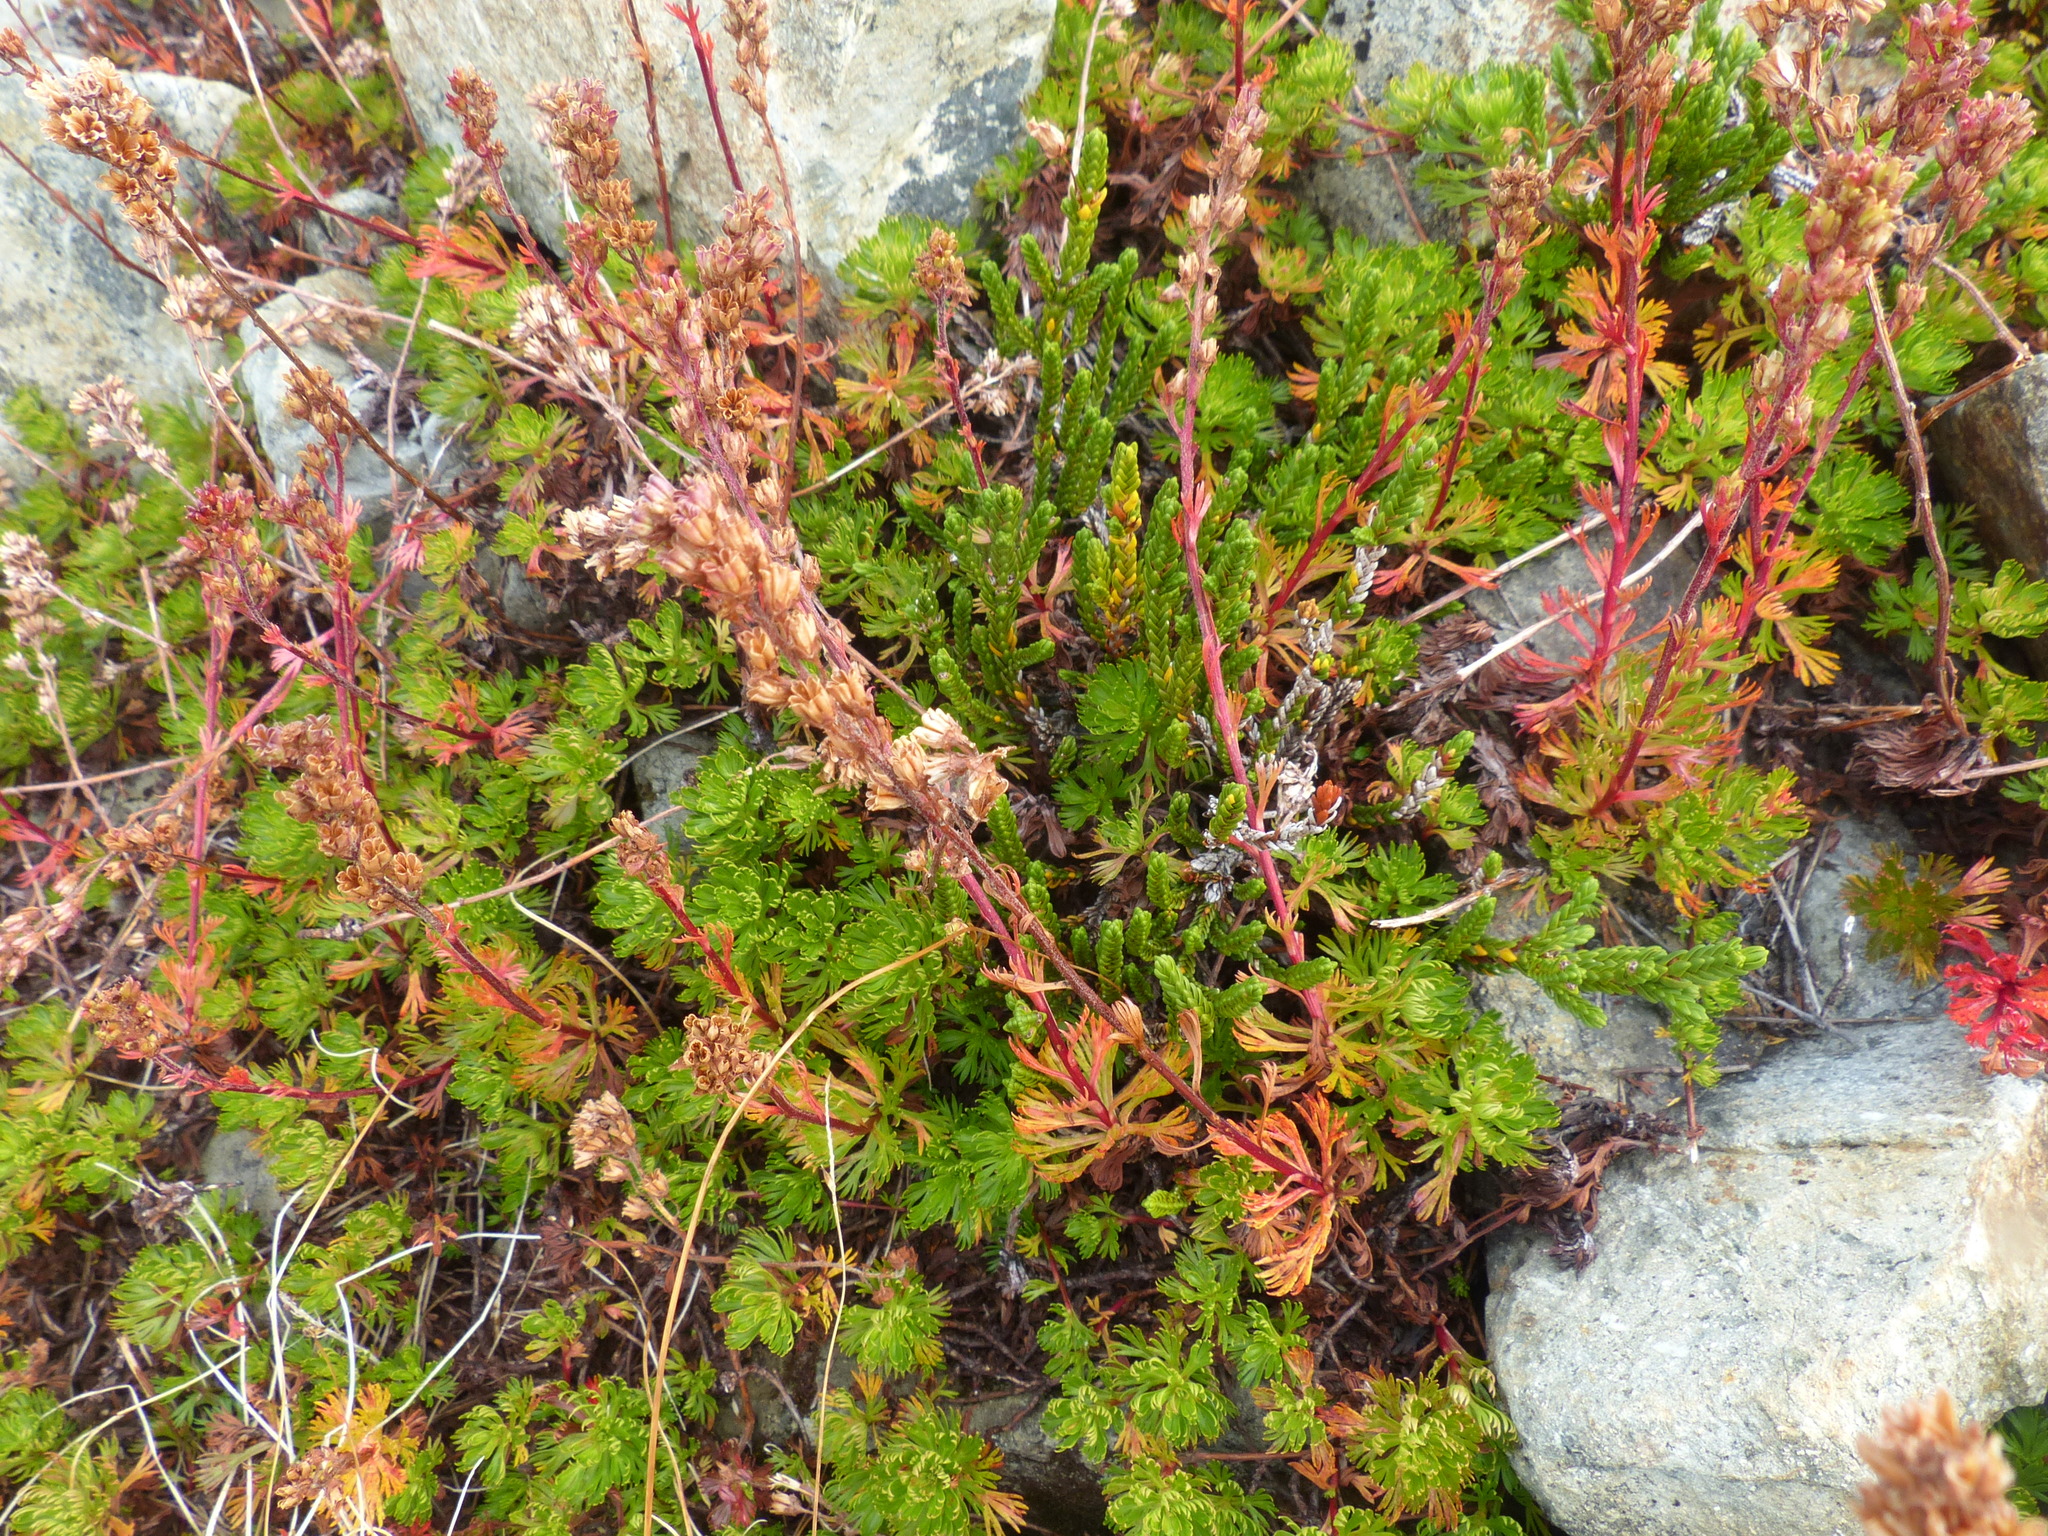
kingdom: Plantae
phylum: Tracheophyta
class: Magnoliopsida
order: Rosales
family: Rosaceae
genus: Luetkea
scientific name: Luetkea pectinata
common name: Partridgefoot
